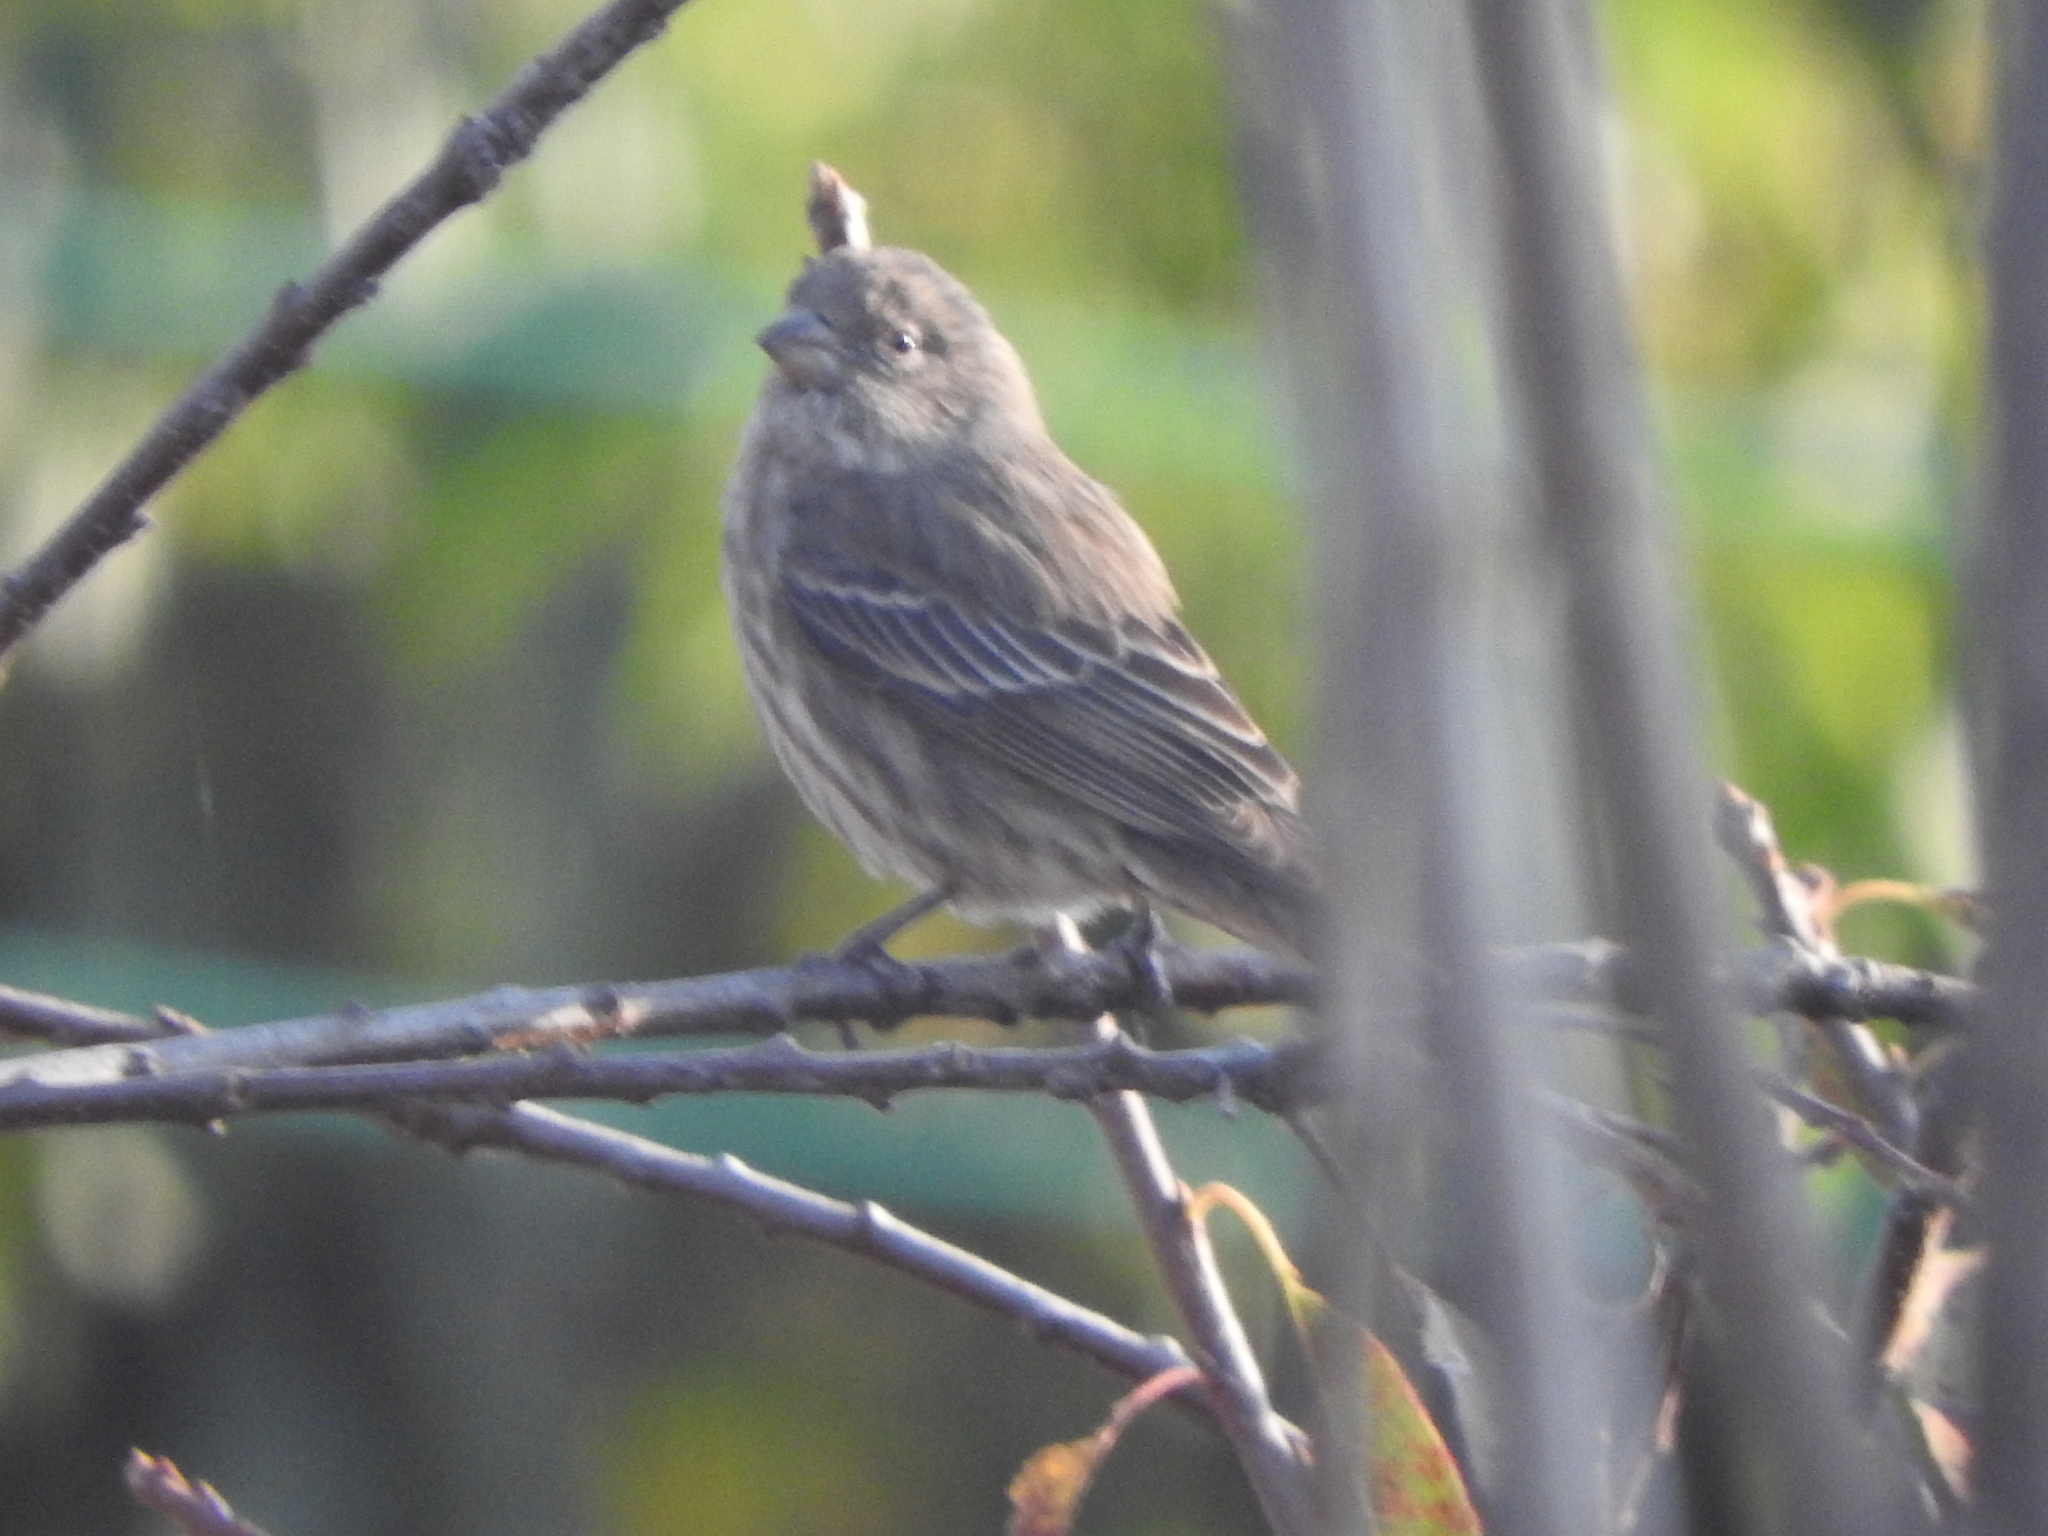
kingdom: Animalia
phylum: Chordata
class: Aves
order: Passeriformes
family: Fringillidae
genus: Haemorhous
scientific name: Haemorhous mexicanus
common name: House finch
